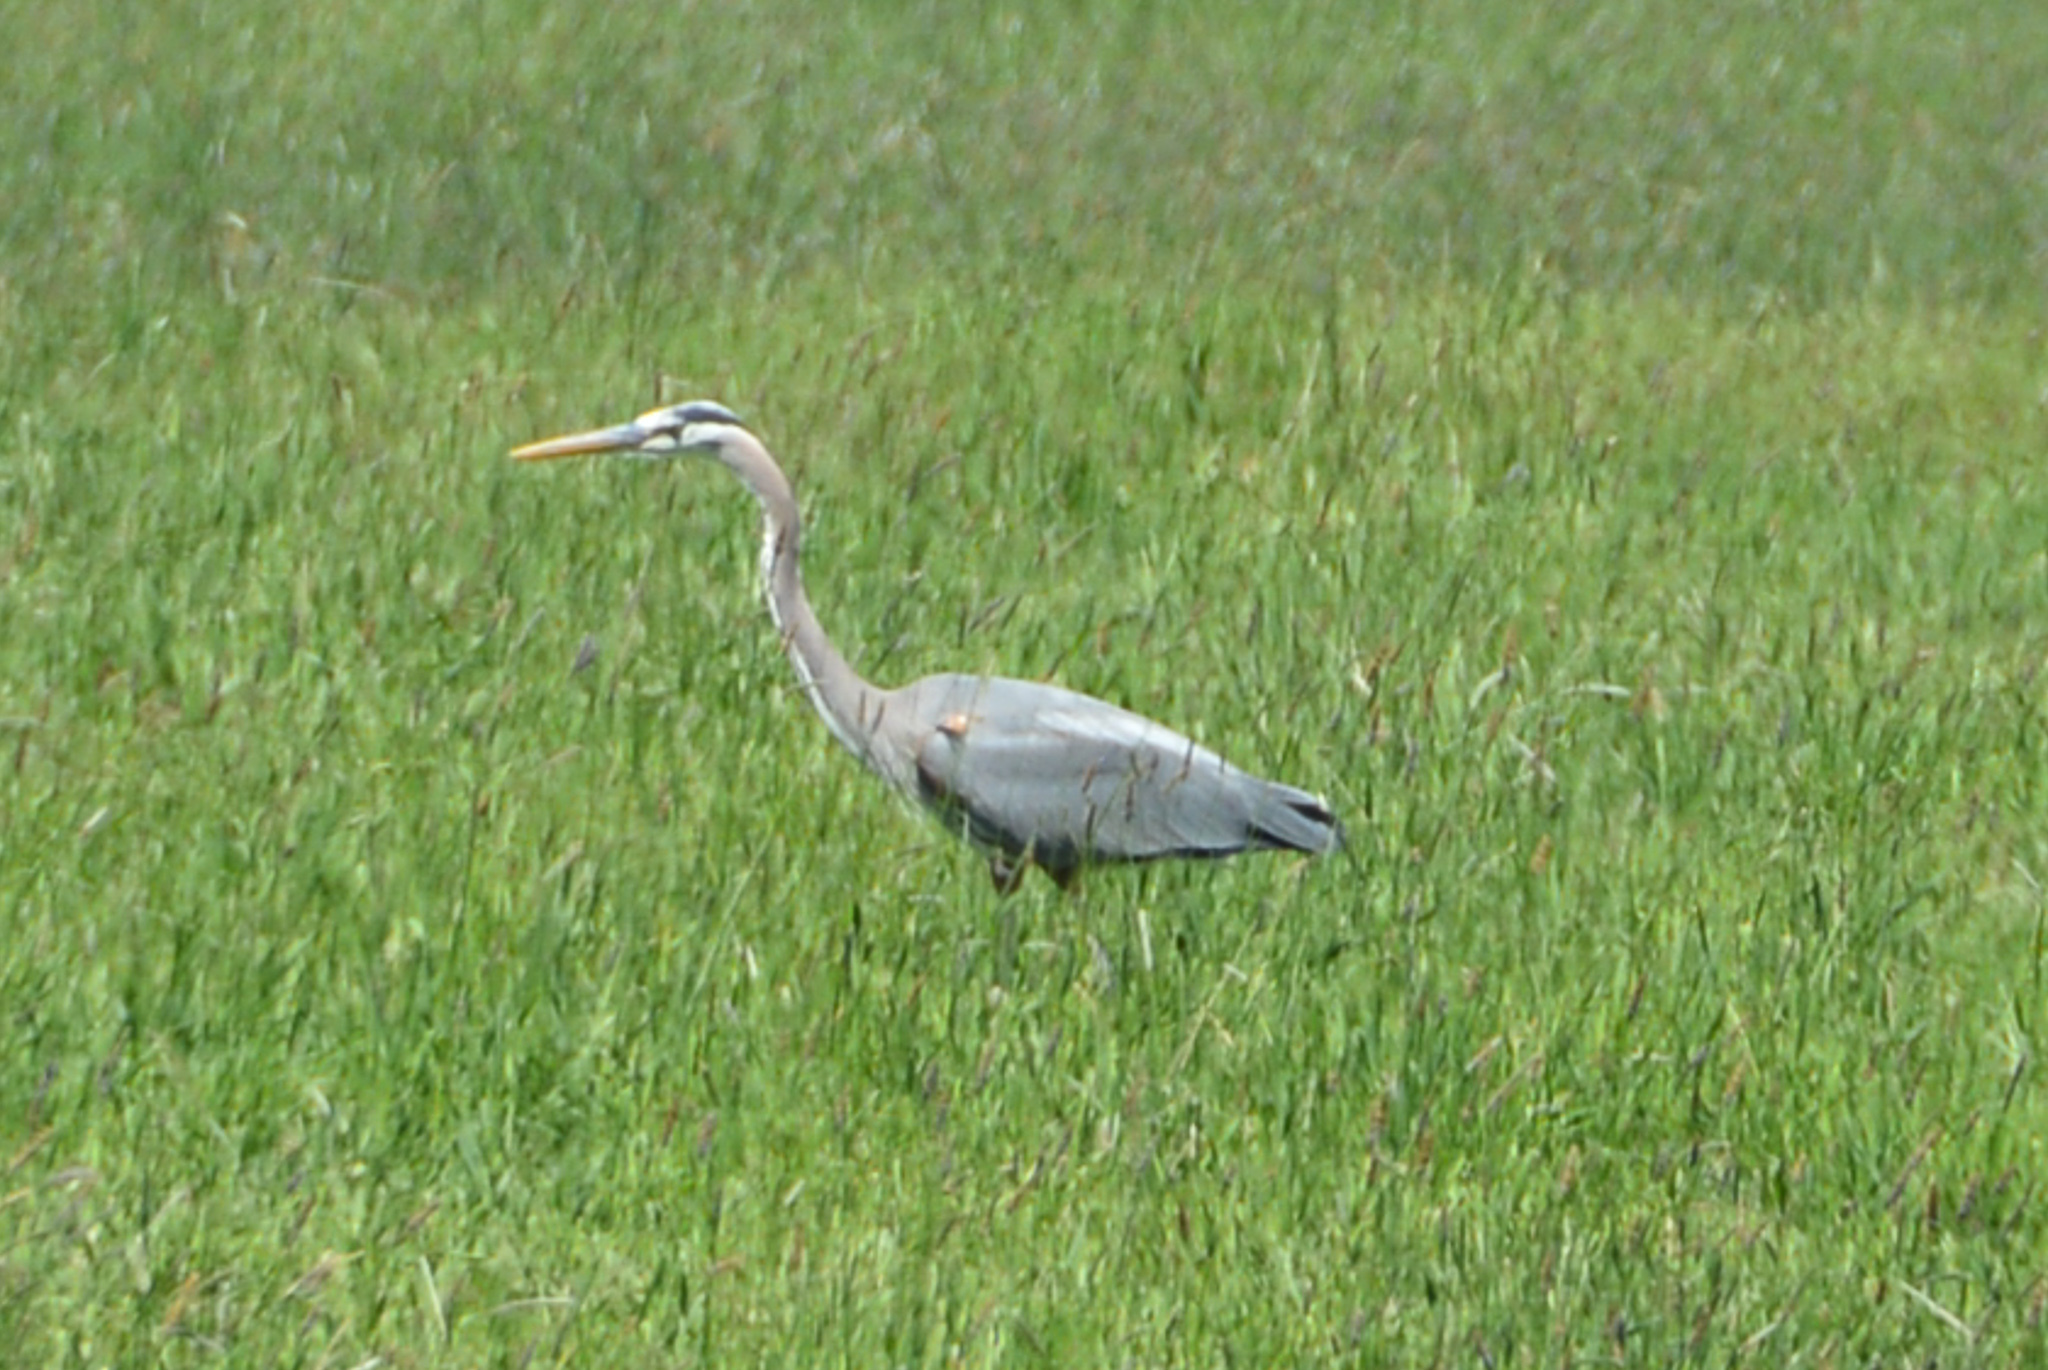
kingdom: Animalia
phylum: Chordata
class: Aves
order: Pelecaniformes
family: Ardeidae
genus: Ardea
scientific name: Ardea herodias
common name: Great blue heron
